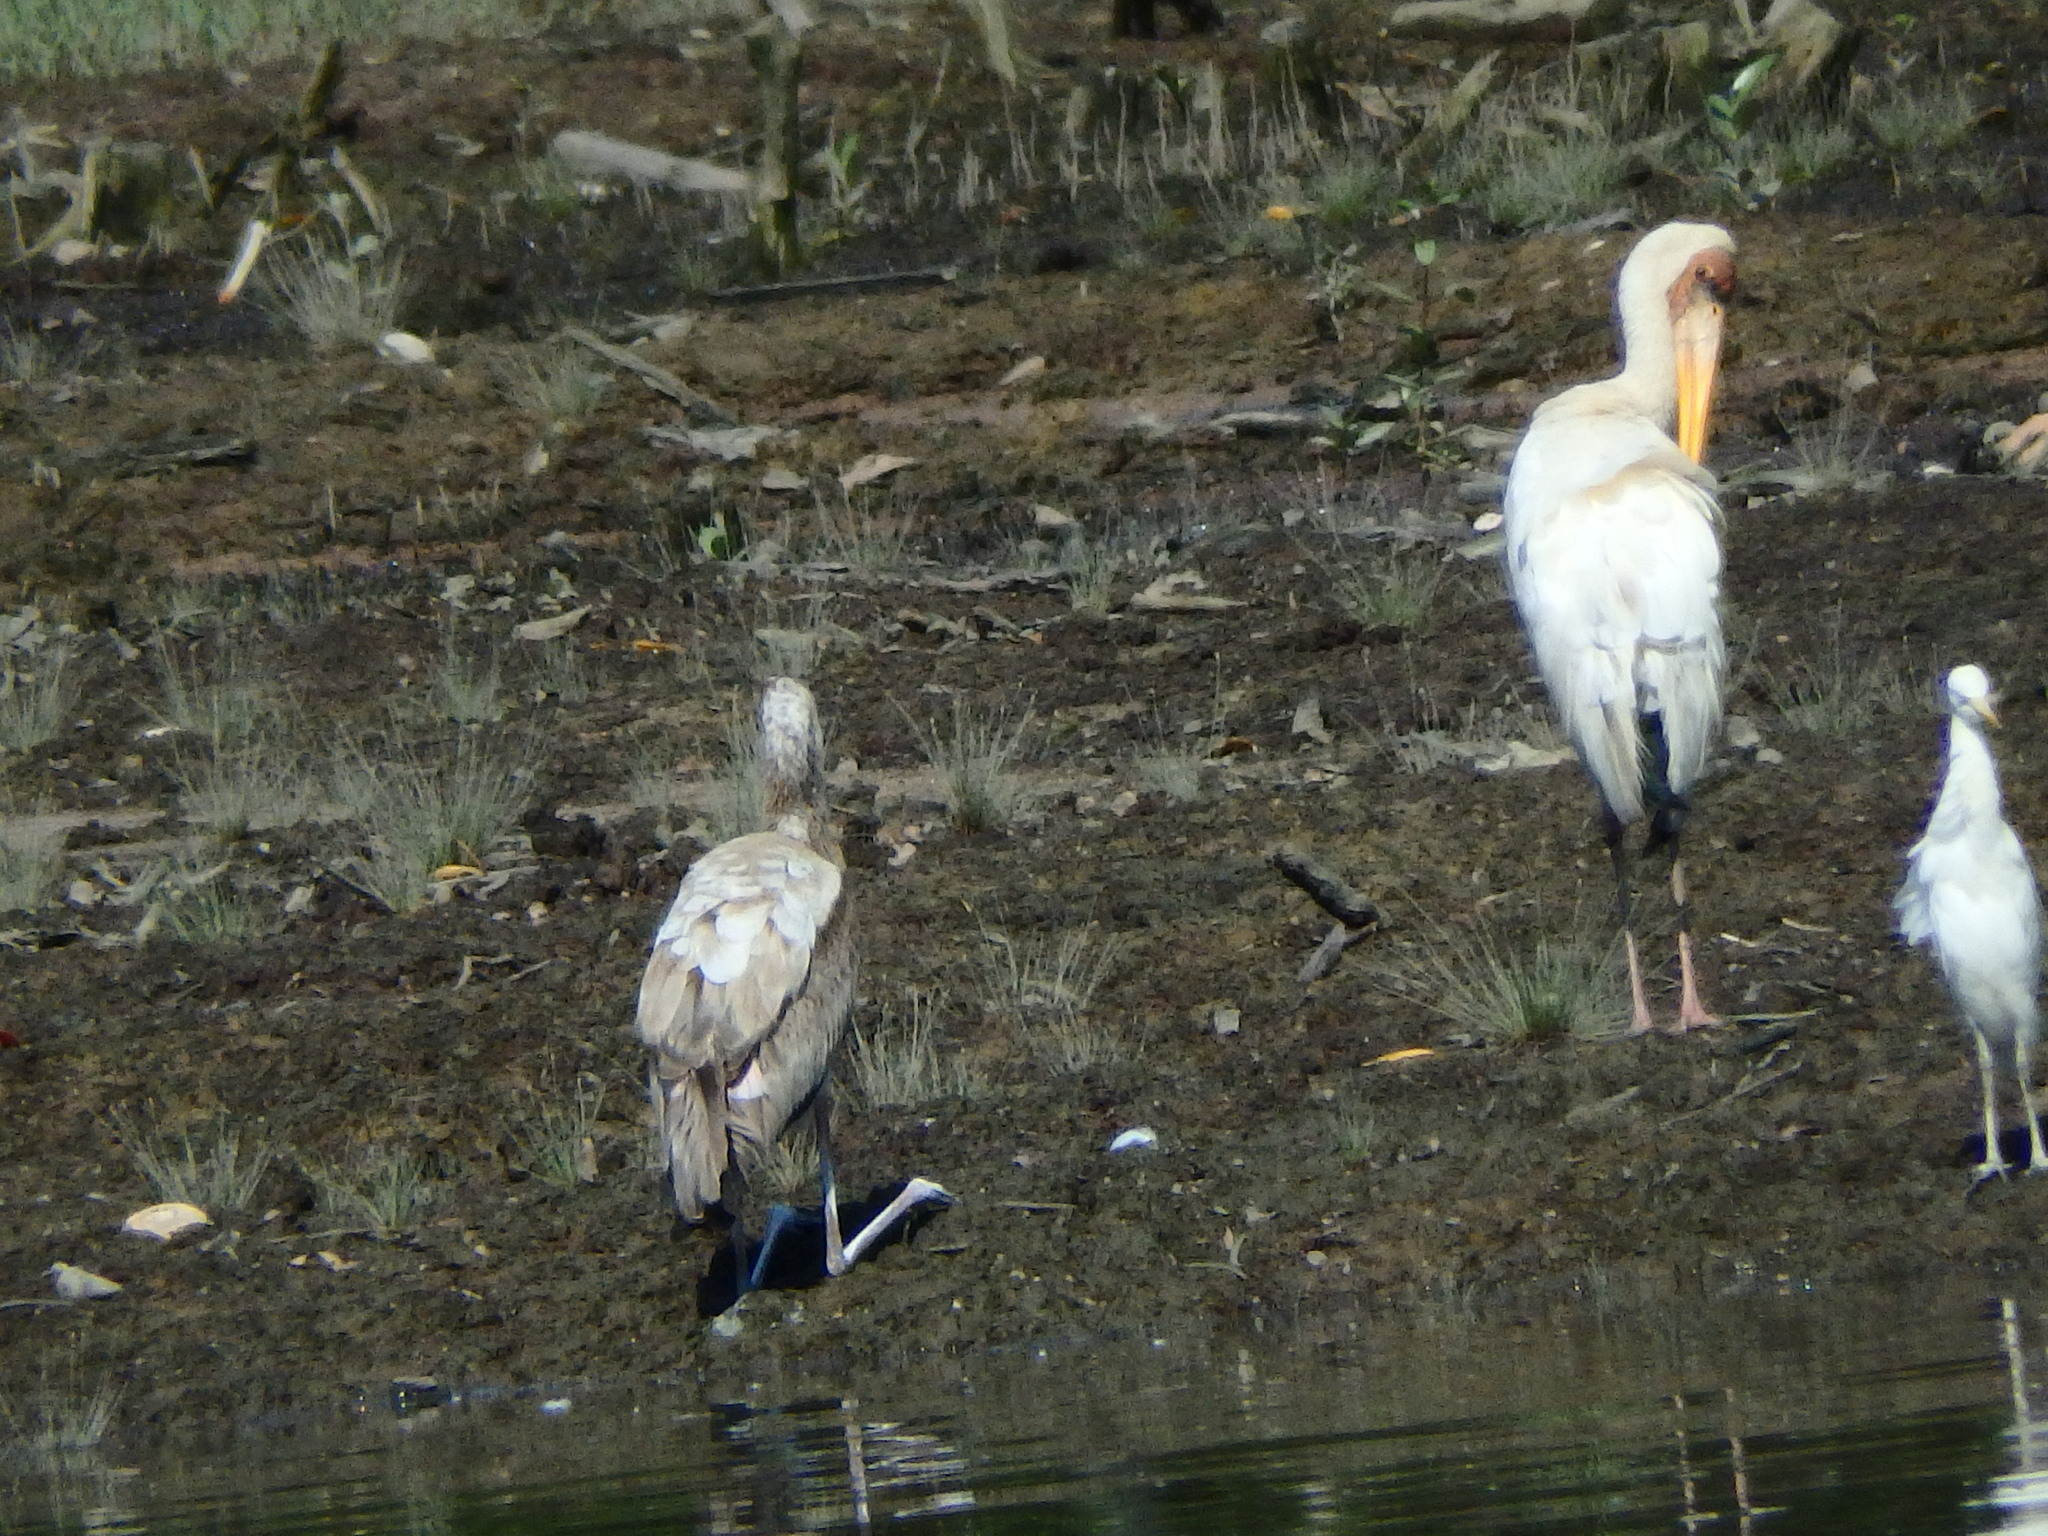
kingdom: Animalia
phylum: Chordata
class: Aves
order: Ciconiiformes
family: Ciconiidae
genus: Mycteria
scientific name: Mycteria
